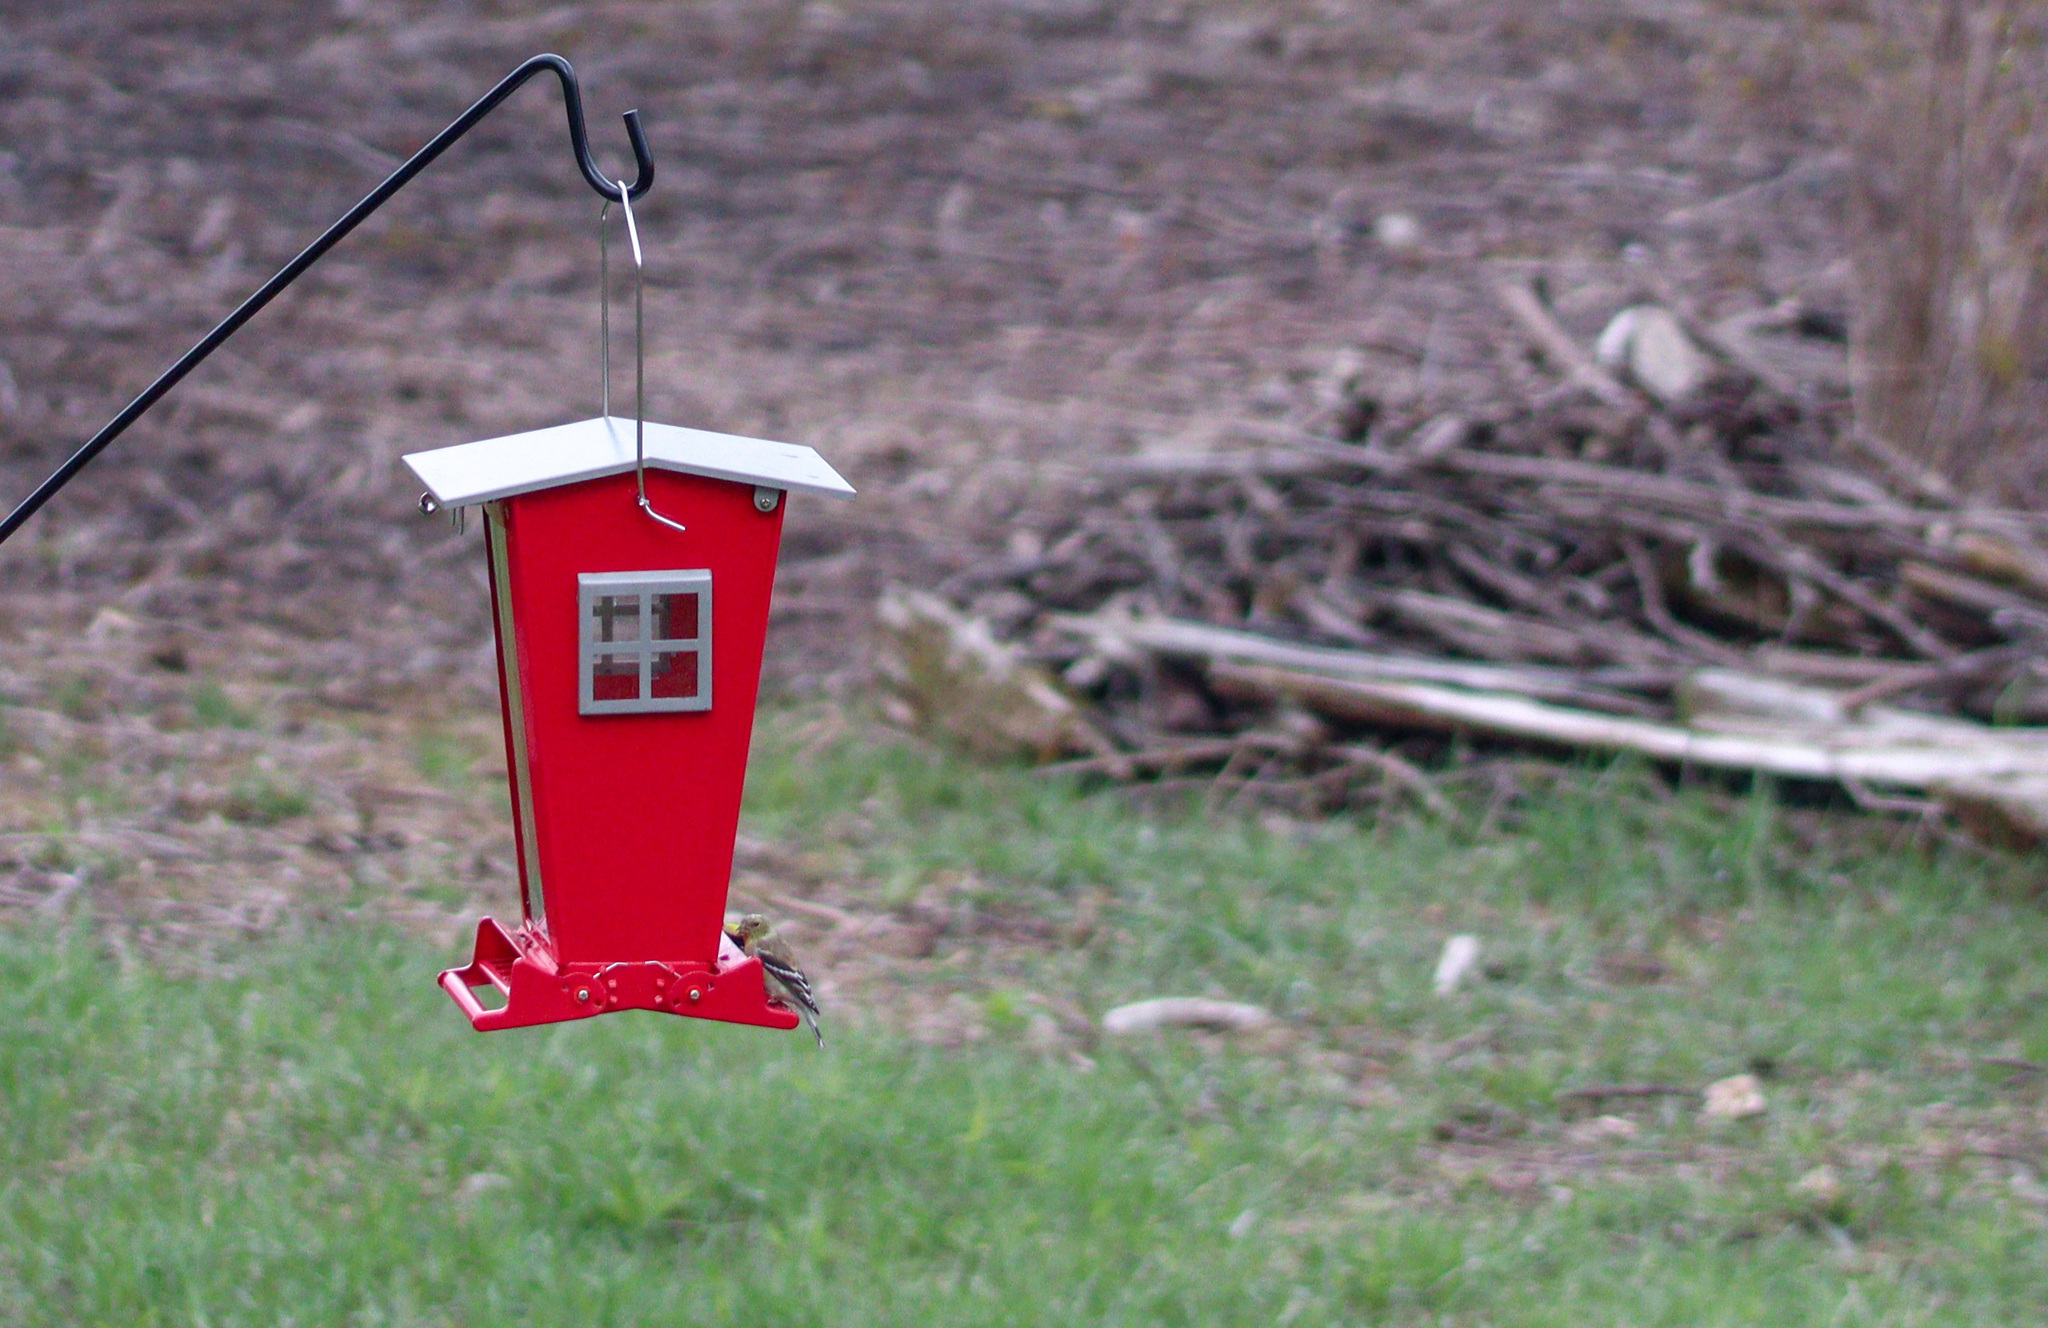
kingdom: Animalia
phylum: Chordata
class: Aves
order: Passeriformes
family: Fringillidae
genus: Spinus
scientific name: Spinus tristis
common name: American goldfinch
